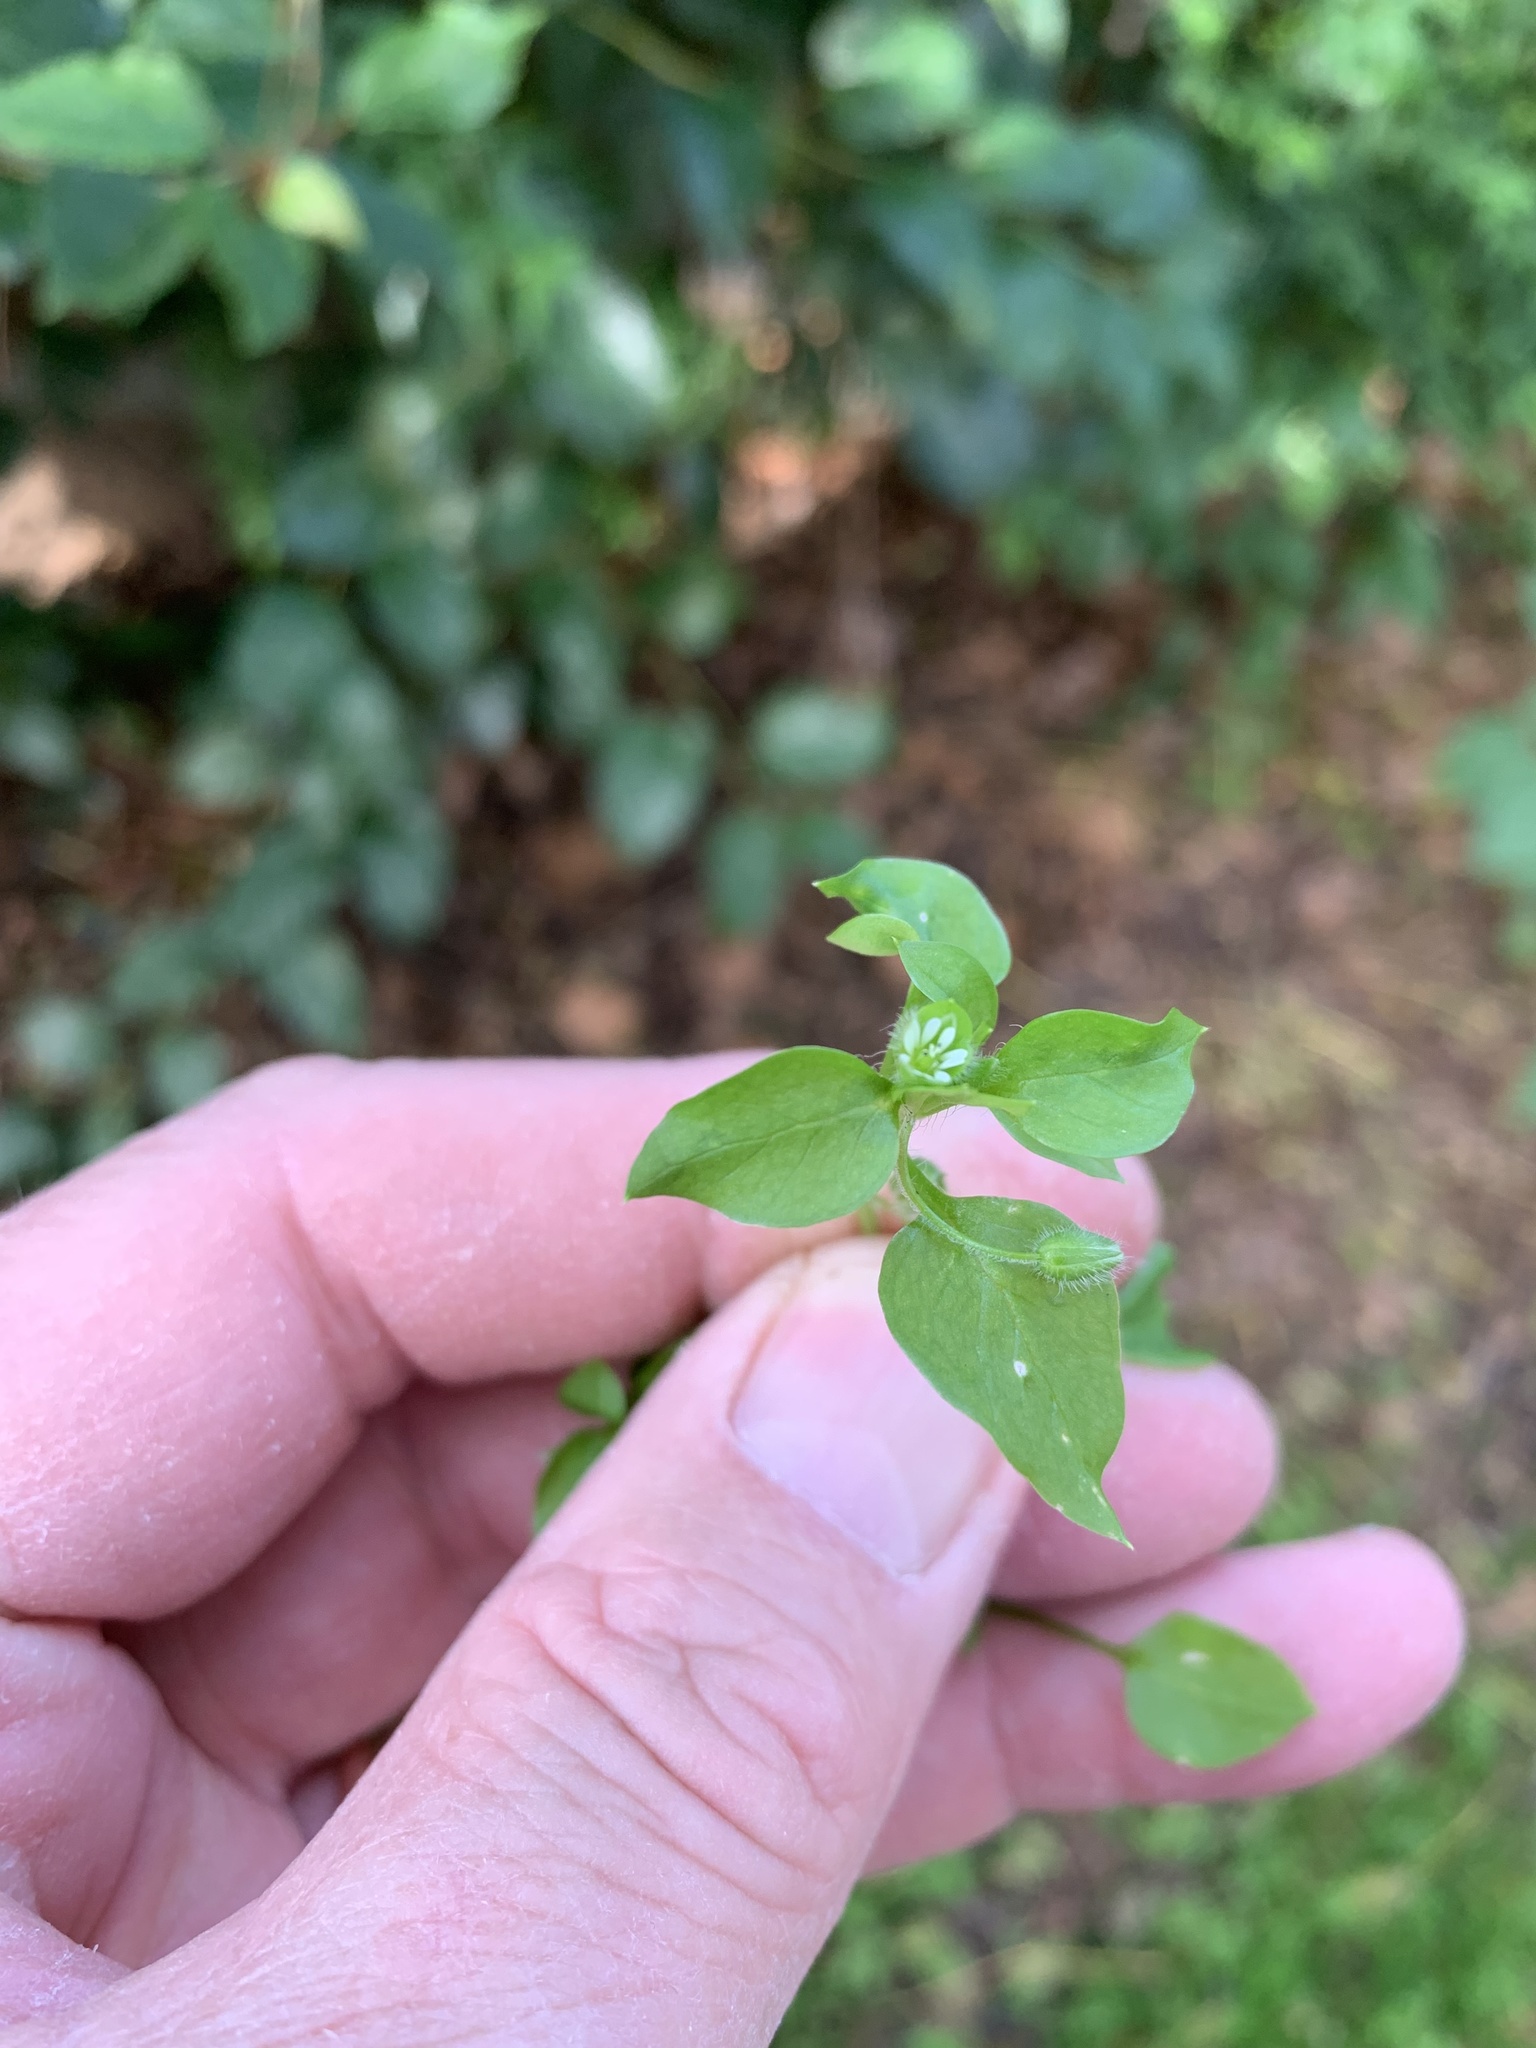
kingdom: Plantae
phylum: Tracheophyta
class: Magnoliopsida
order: Caryophyllales
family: Caryophyllaceae
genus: Stellaria
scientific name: Stellaria media
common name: Common chickweed
